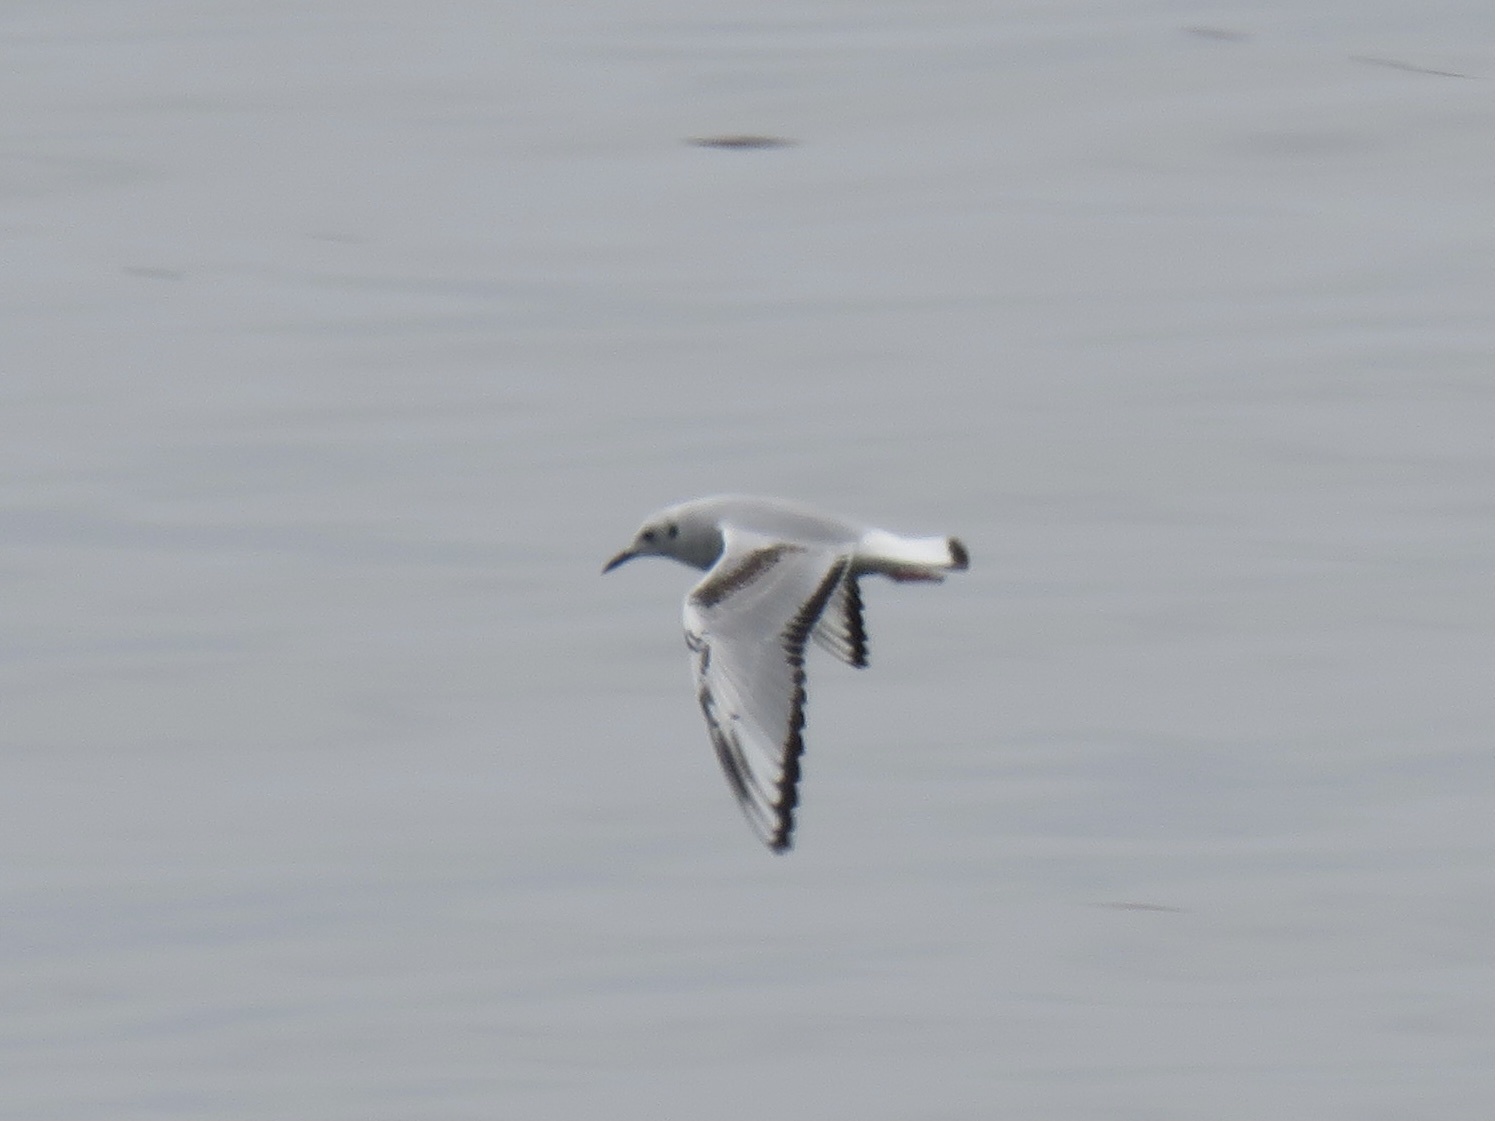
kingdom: Animalia
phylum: Chordata
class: Aves
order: Charadriiformes
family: Laridae
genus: Chroicocephalus
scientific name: Chroicocephalus philadelphia
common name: Bonaparte's gull
